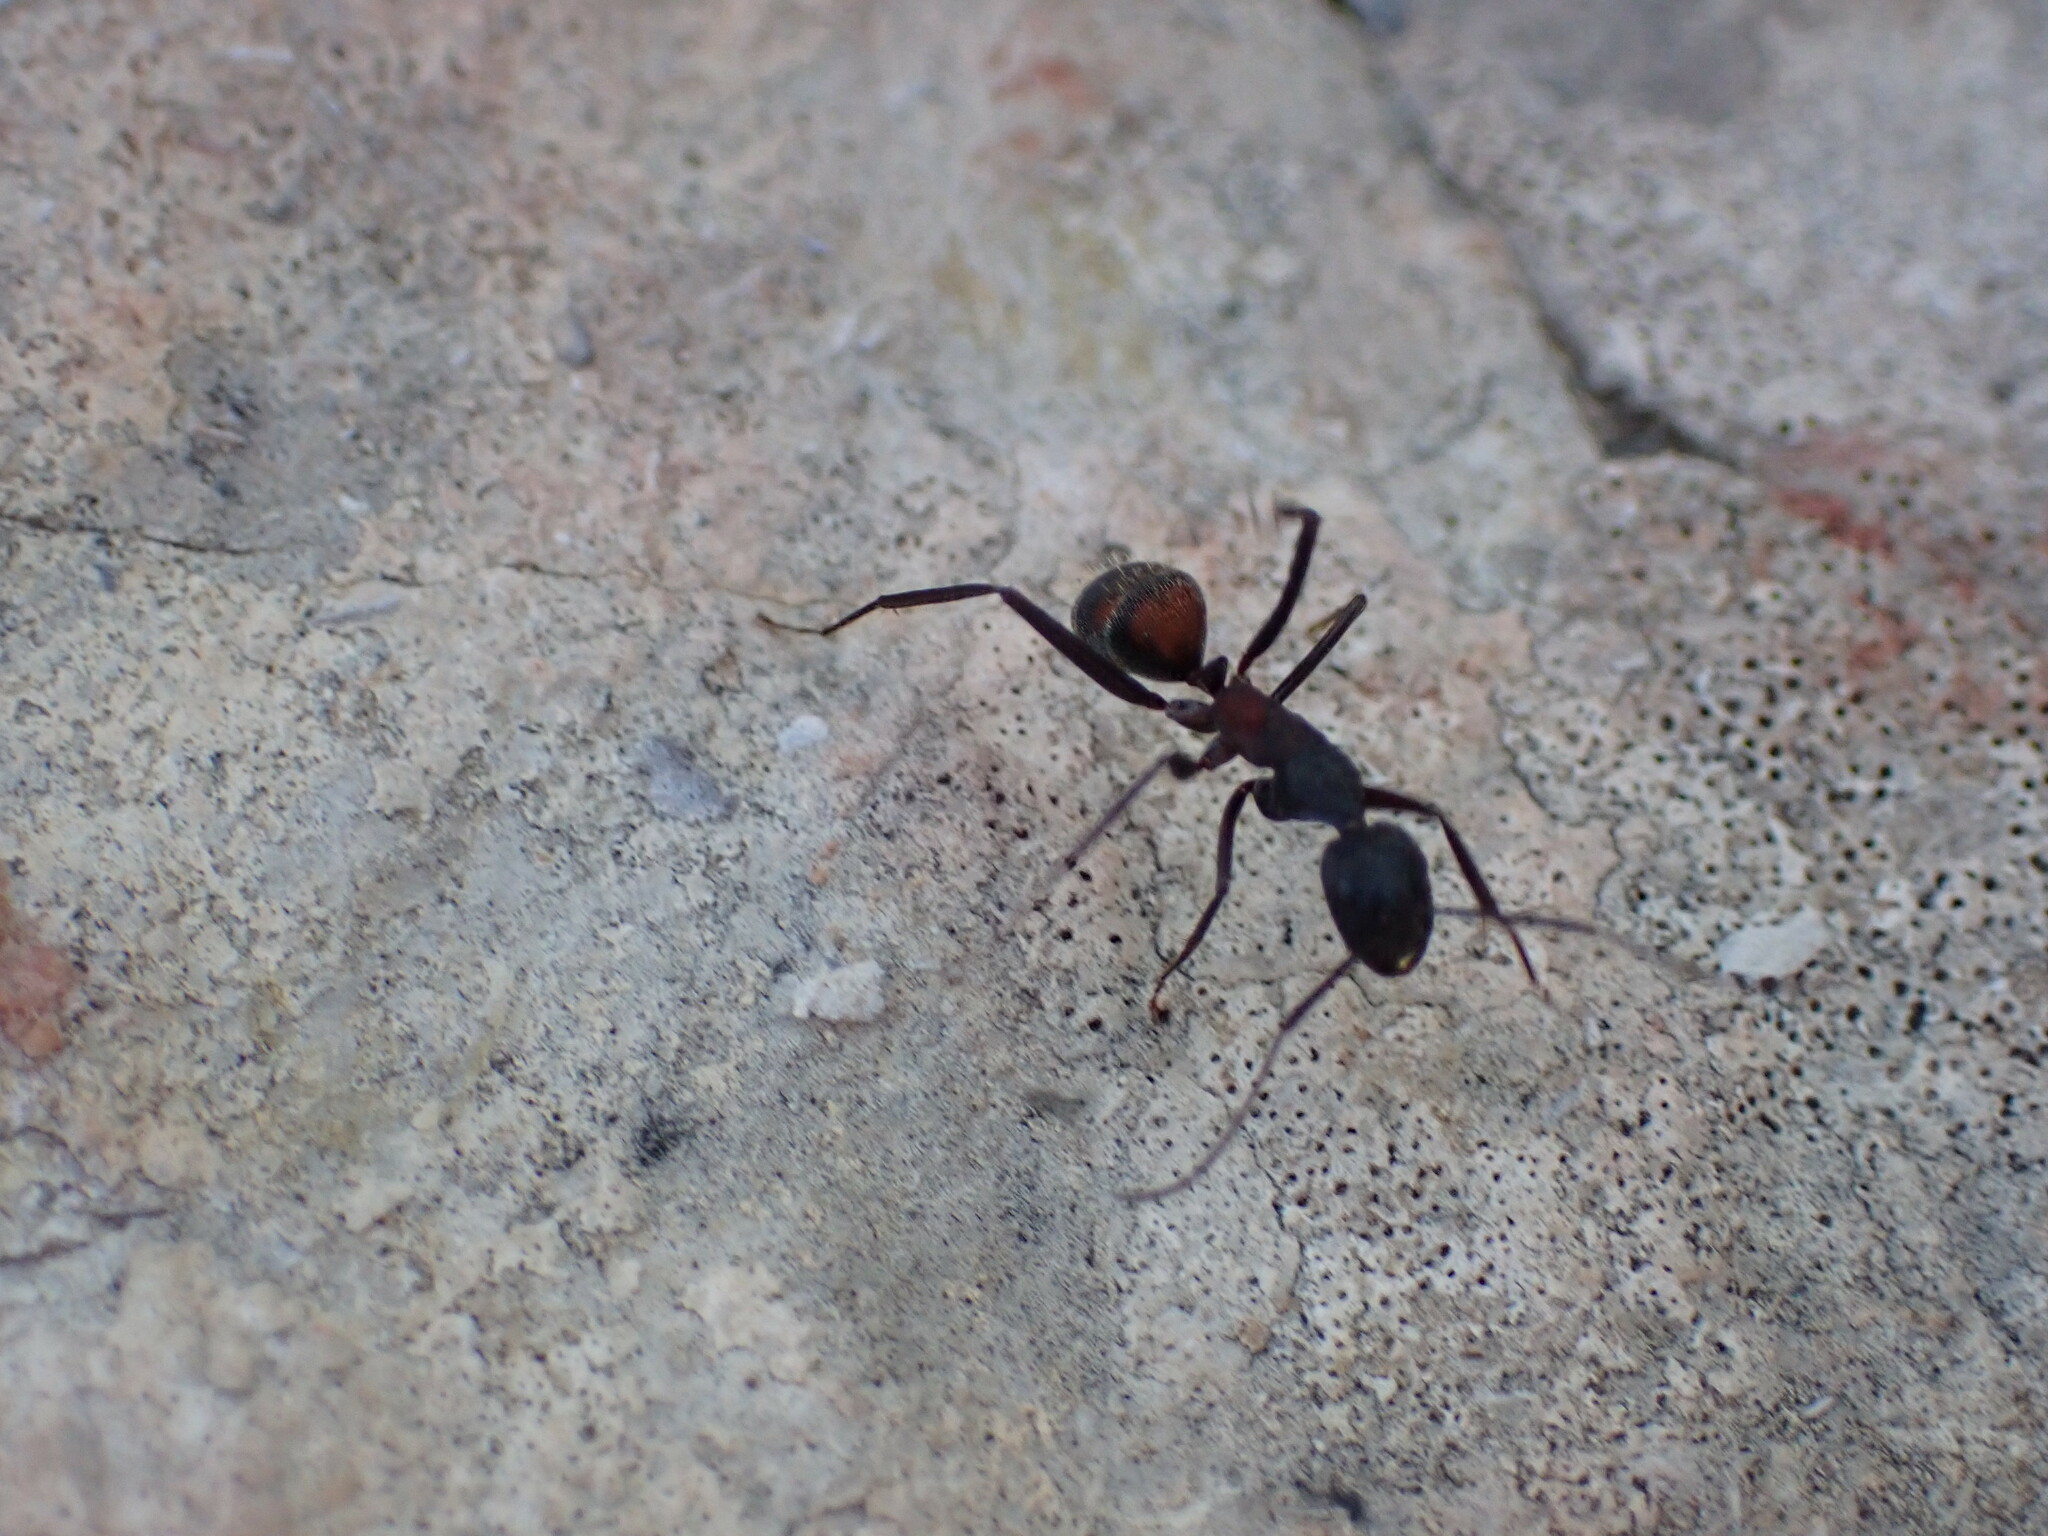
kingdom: Animalia
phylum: Arthropoda
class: Insecta
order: Hymenoptera
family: Formicidae
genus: Camponotus
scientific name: Camponotus cruentatus
